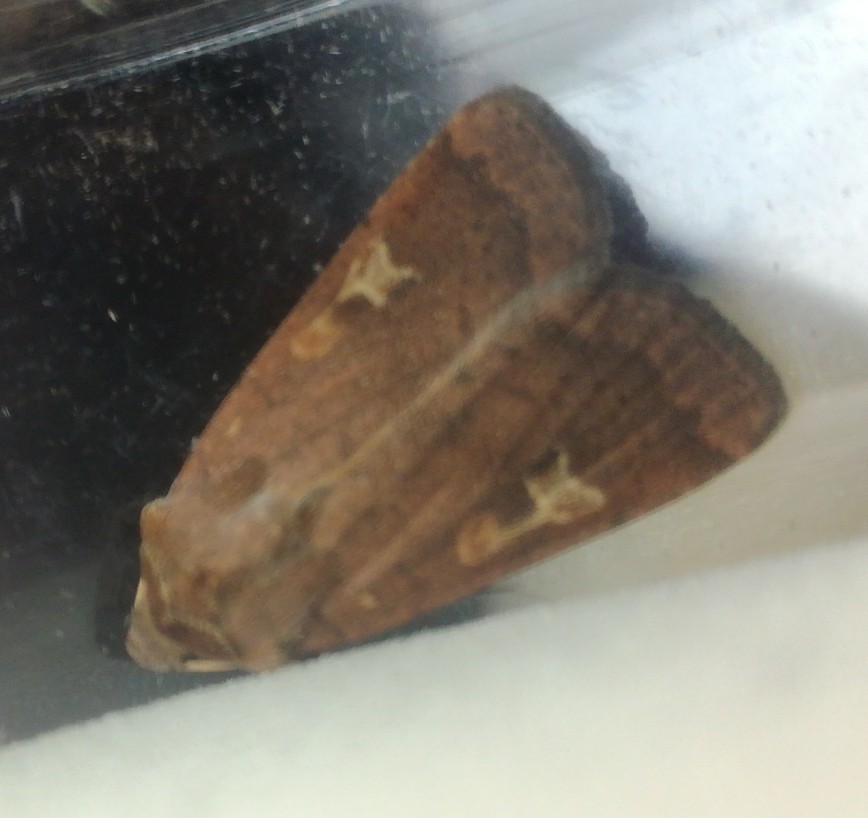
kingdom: Animalia
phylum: Arthropoda
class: Insecta
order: Lepidoptera
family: Noctuidae
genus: Xestia
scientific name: Xestia xanthographa
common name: Square-spot rustic
